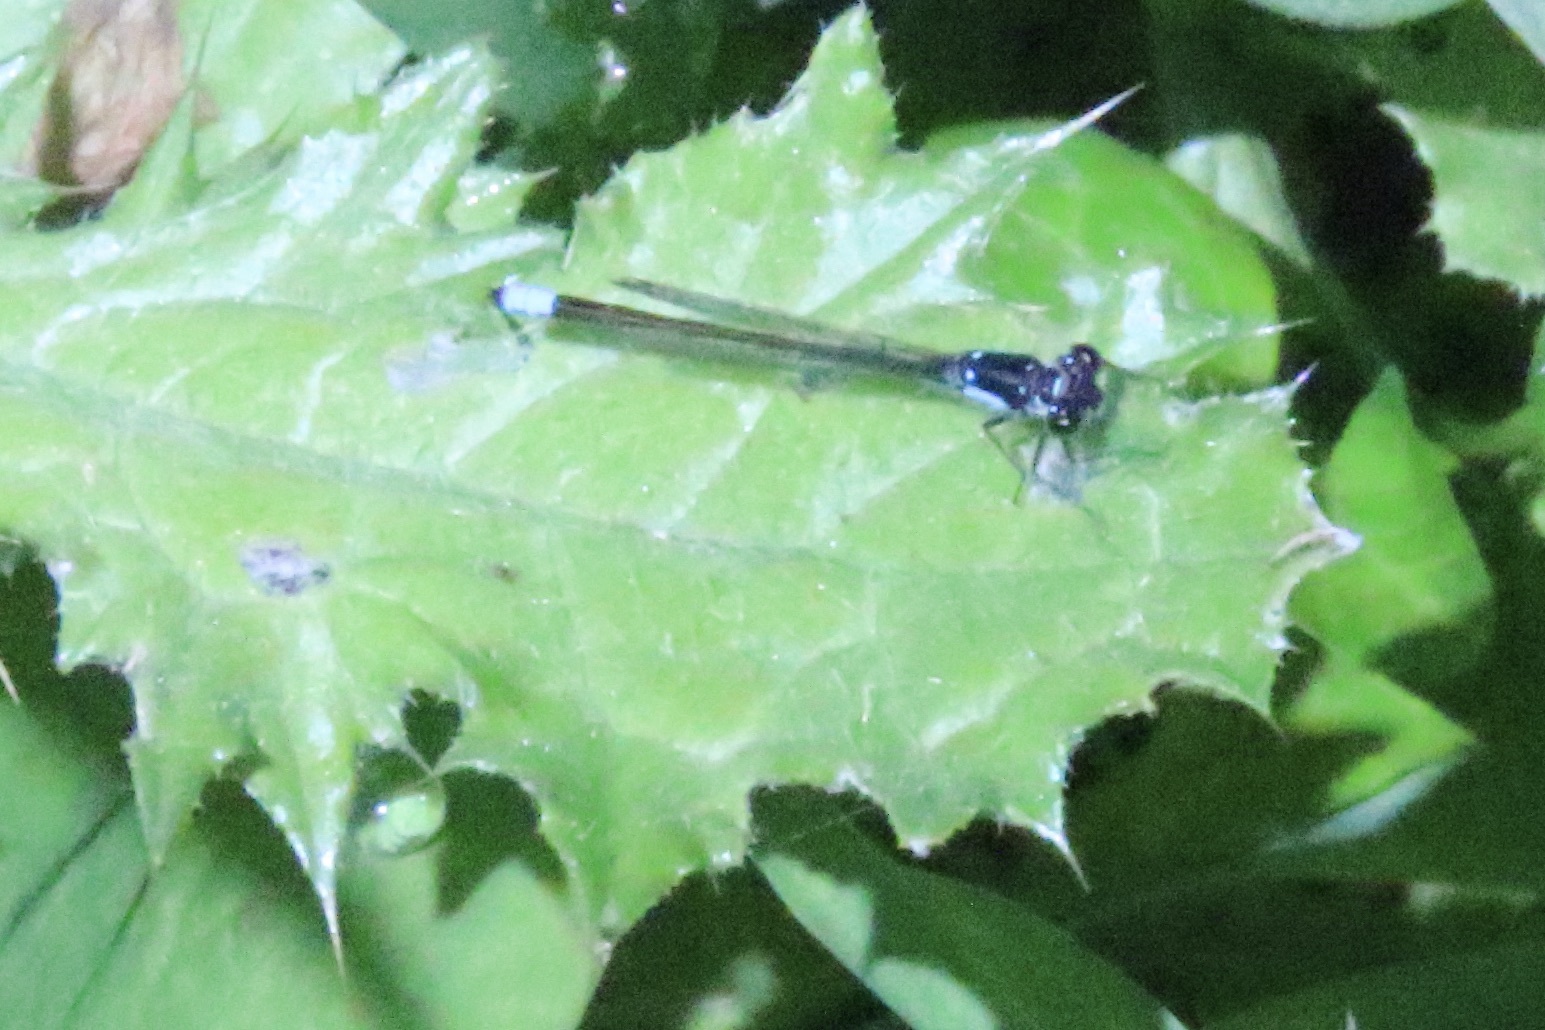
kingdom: Animalia
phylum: Arthropoda
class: Insecta
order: Odonata
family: Coenagrionidae
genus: Ischnura
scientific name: Ischnura cervula
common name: Pacific forktail
